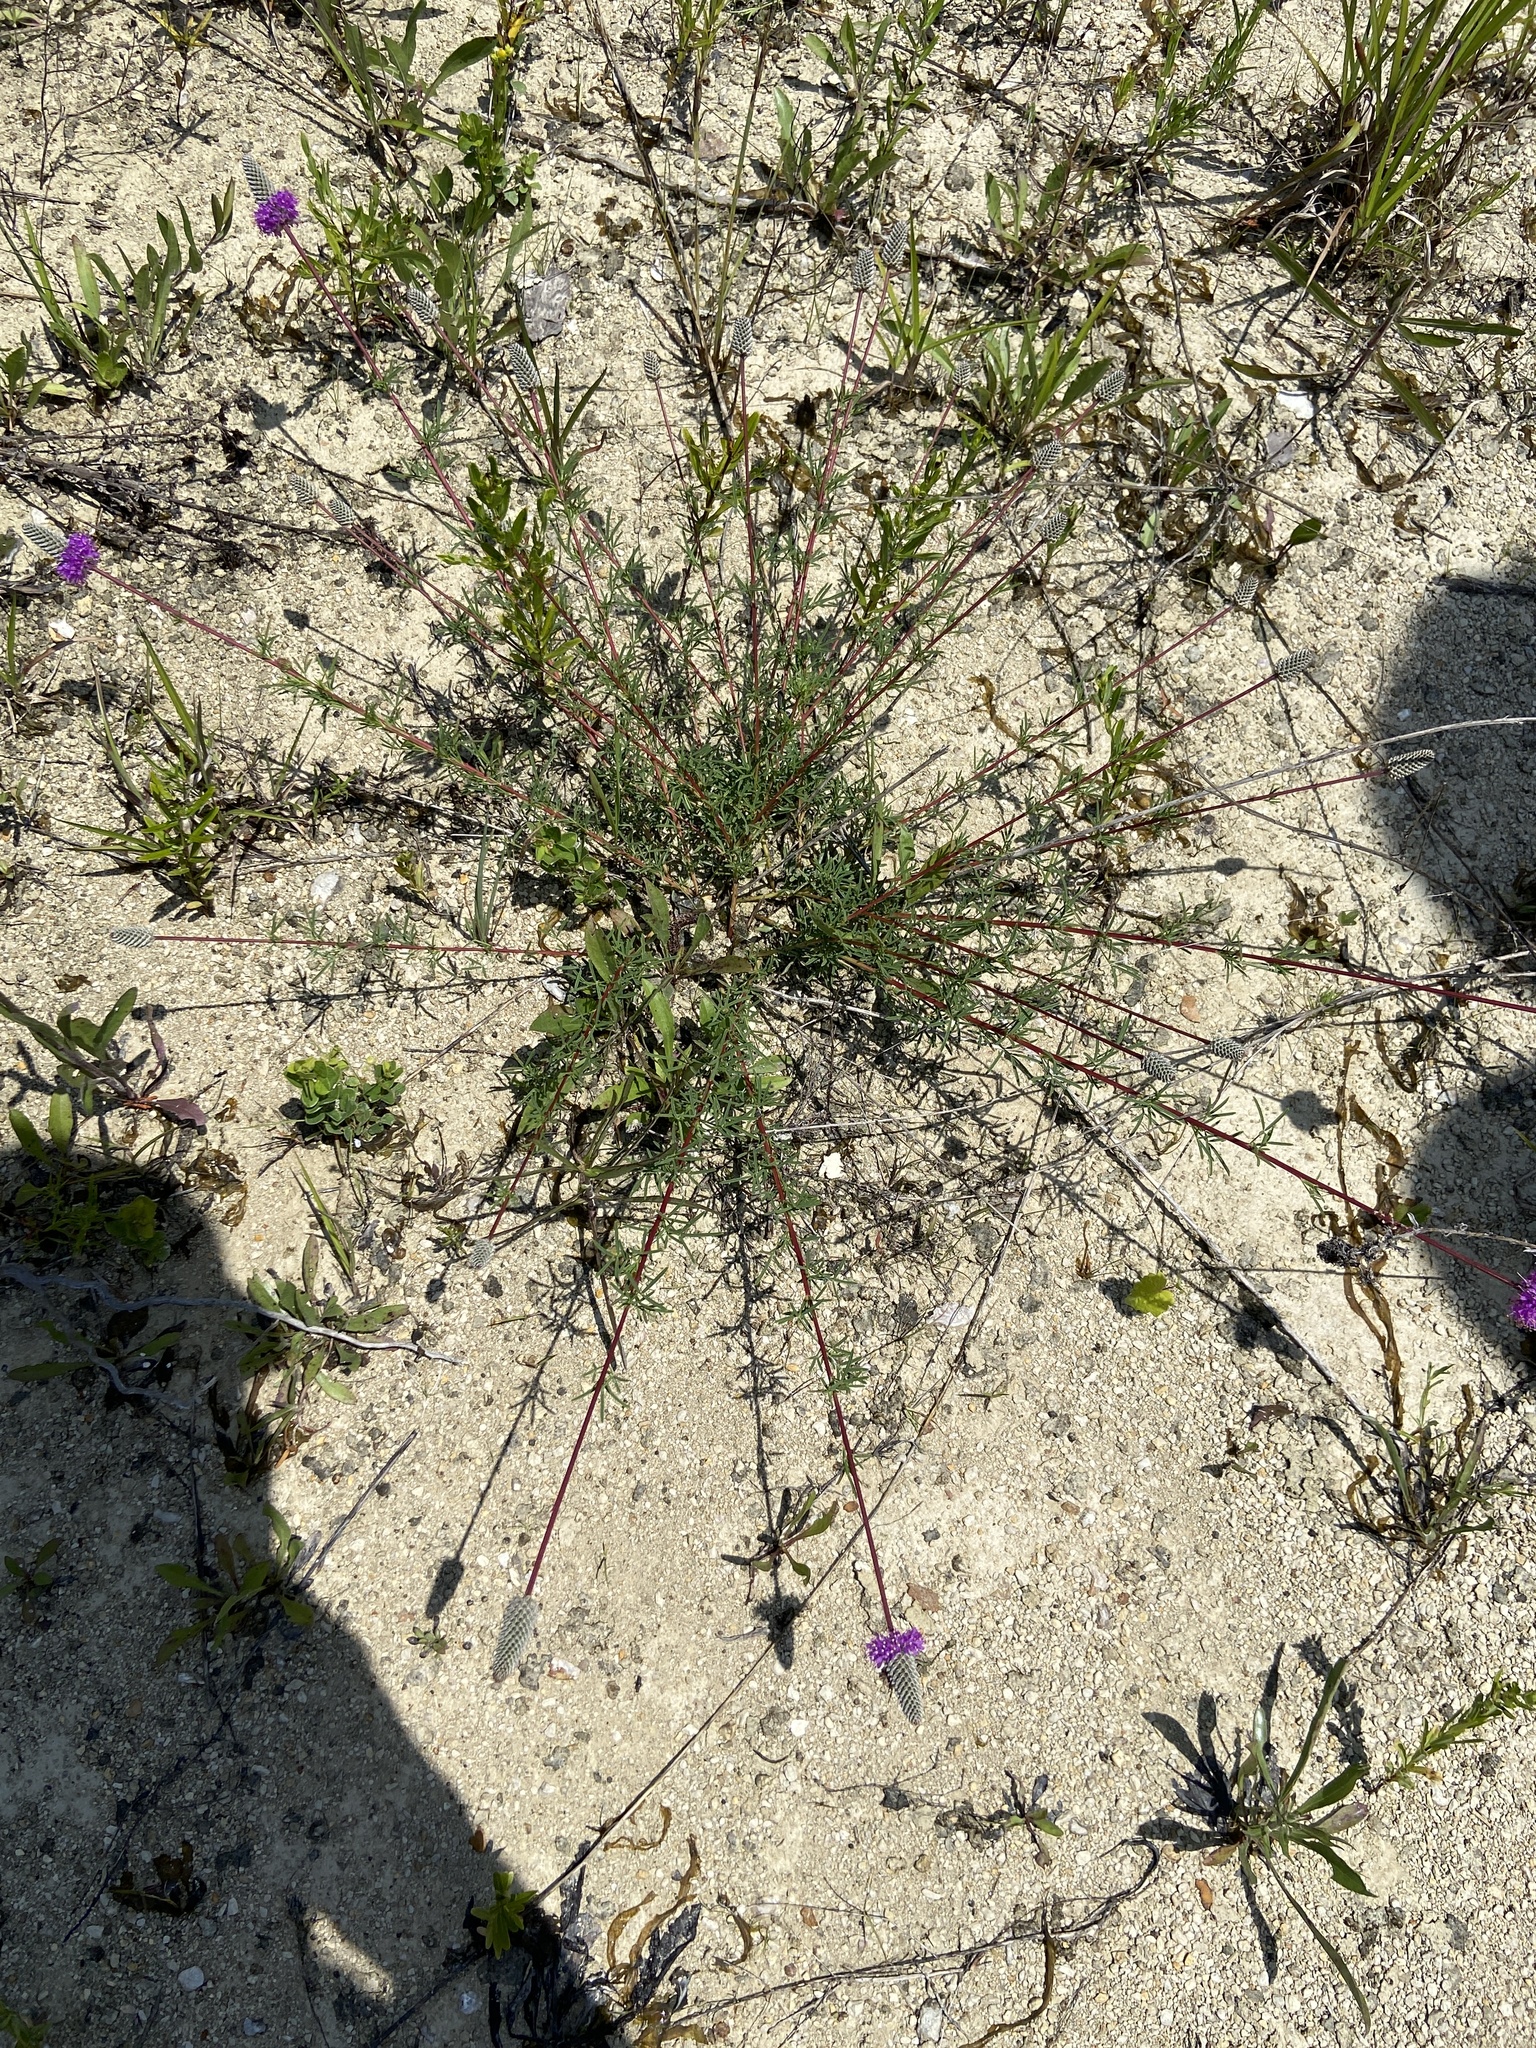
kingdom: Plantae
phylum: Tracheophyta
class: Magnoliopsida
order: Fabales
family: Fabaceae
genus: Dalea
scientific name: Dalea purpurea
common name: Purple prairie-clover
